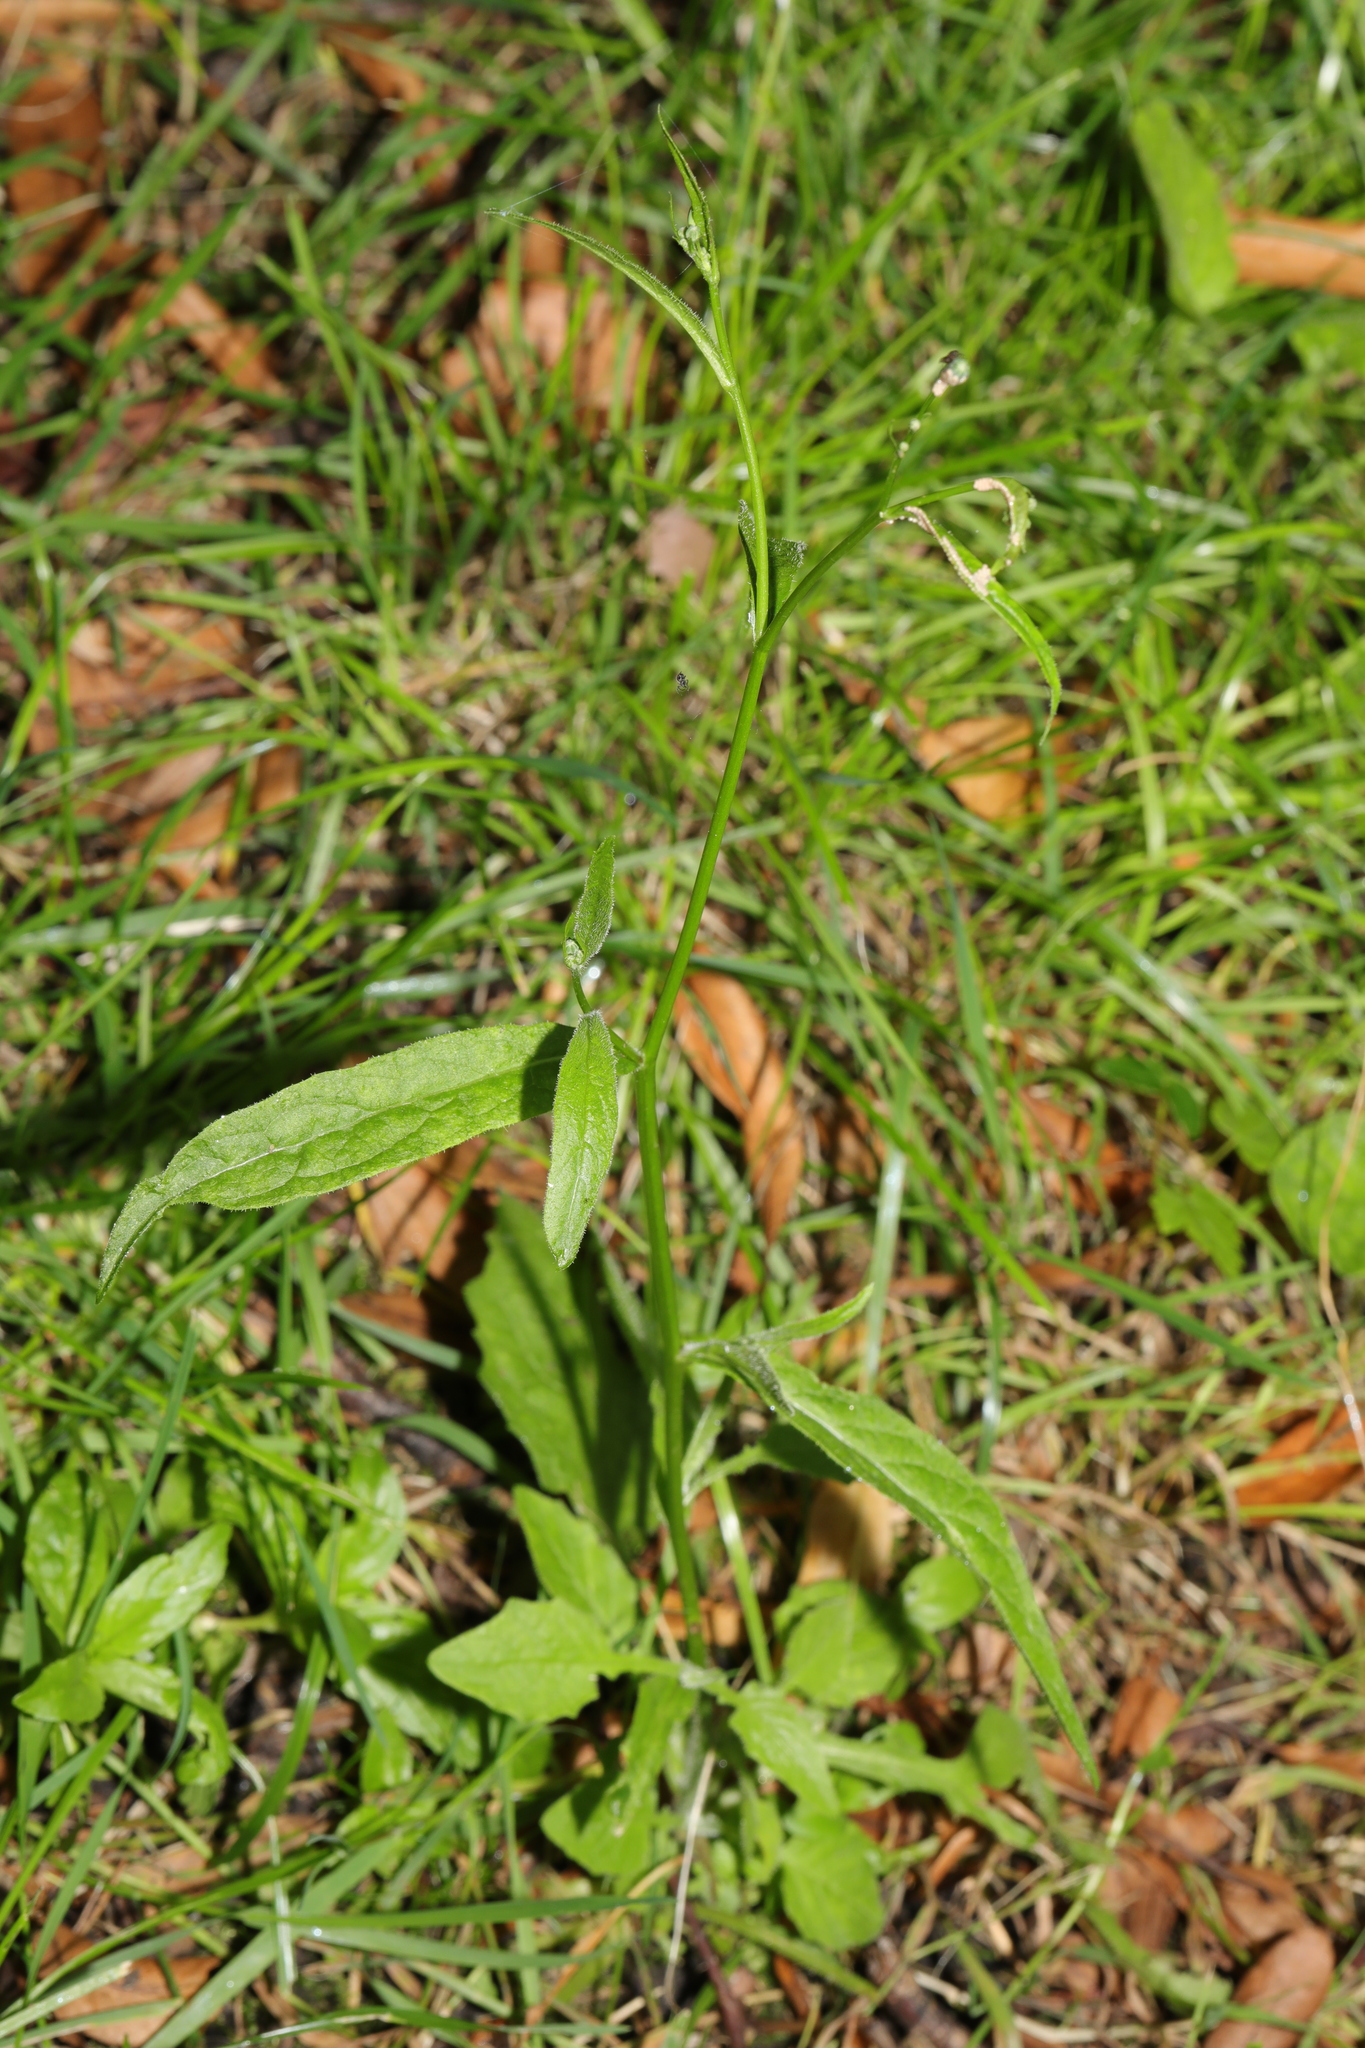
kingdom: Plantae
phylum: Tracheophyta
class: Magnoliopsida
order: Asterales
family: Asteraceae
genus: Lapsana
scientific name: Lapsana communis
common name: Nipplewort
